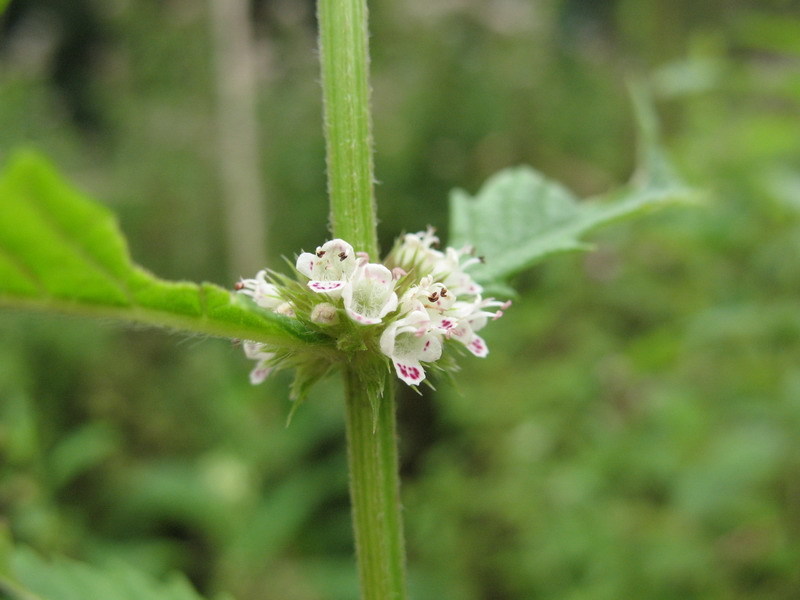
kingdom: Plantae
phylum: Tracheophyta
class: Magnoliopsida
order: Lamiales
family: Lamiaceae
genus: Lycopus
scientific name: Lycopus europaeus
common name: European bugleweed
